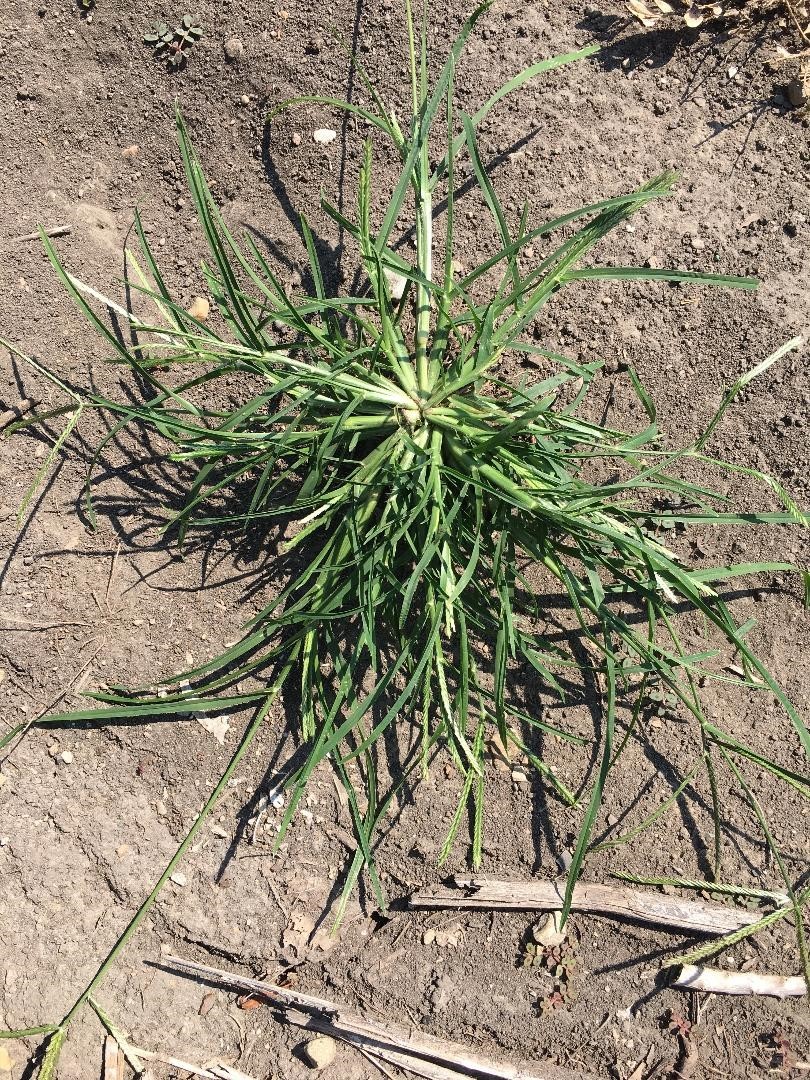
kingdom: Plantae
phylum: Tracheophyta
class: Liliopsida
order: Poales
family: Poaceae
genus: Eleusine
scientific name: Eleusine indica
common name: Yard-grass
